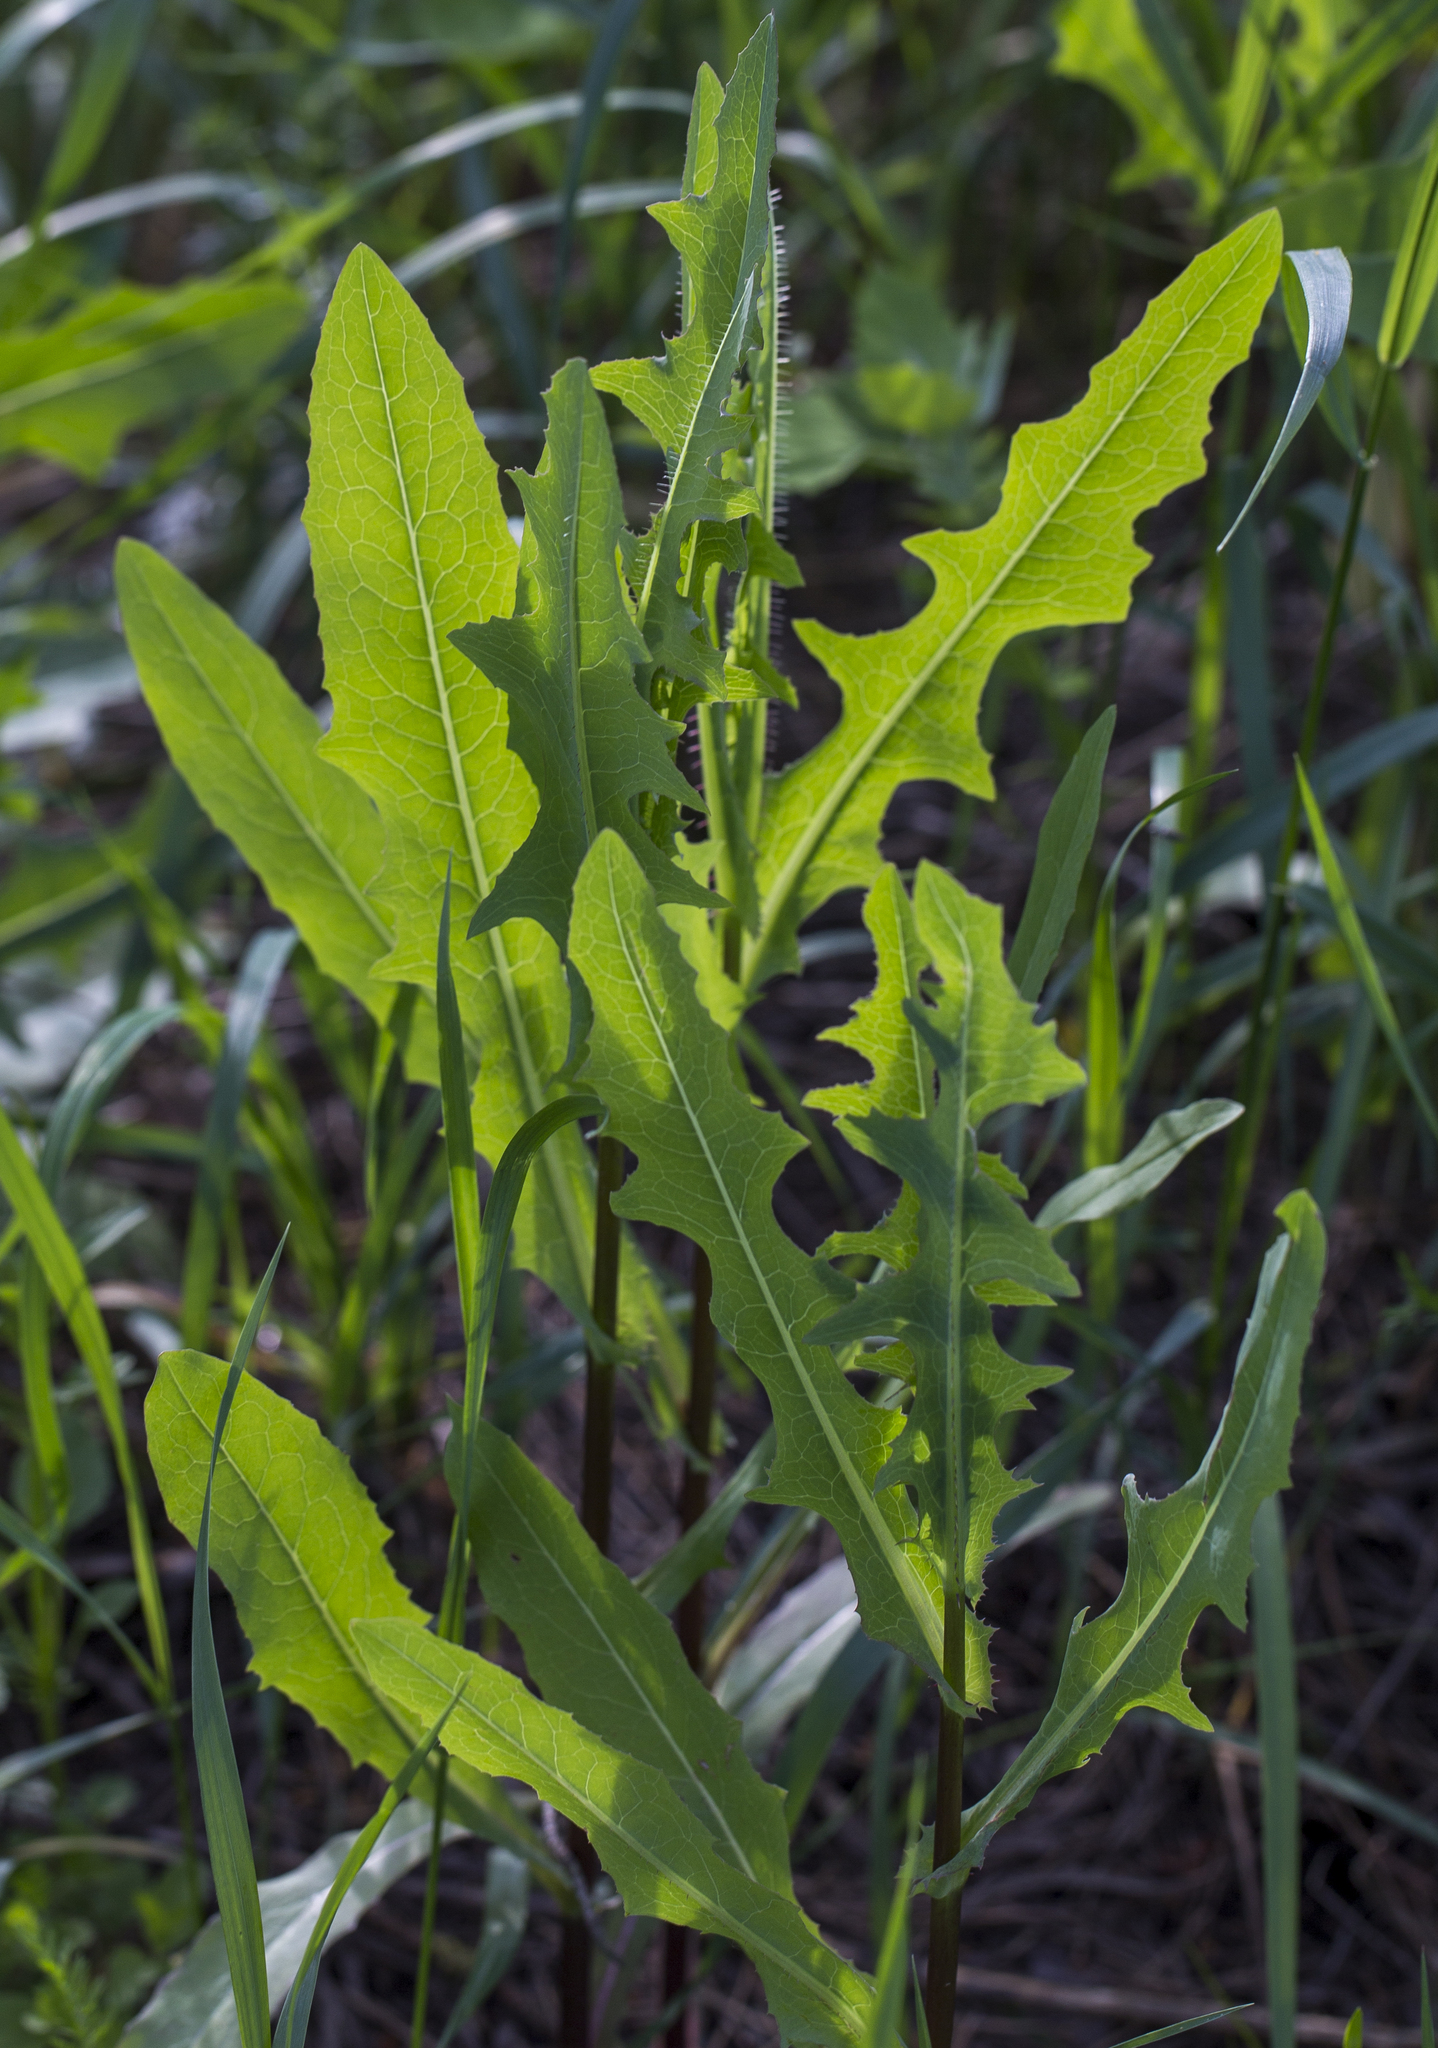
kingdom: Plantae
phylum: Tracheophyta
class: Magnoliopsida
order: Asterales
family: Asteraceae
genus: Lactuca
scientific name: Lactuca serriola
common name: Prickly lettuce
